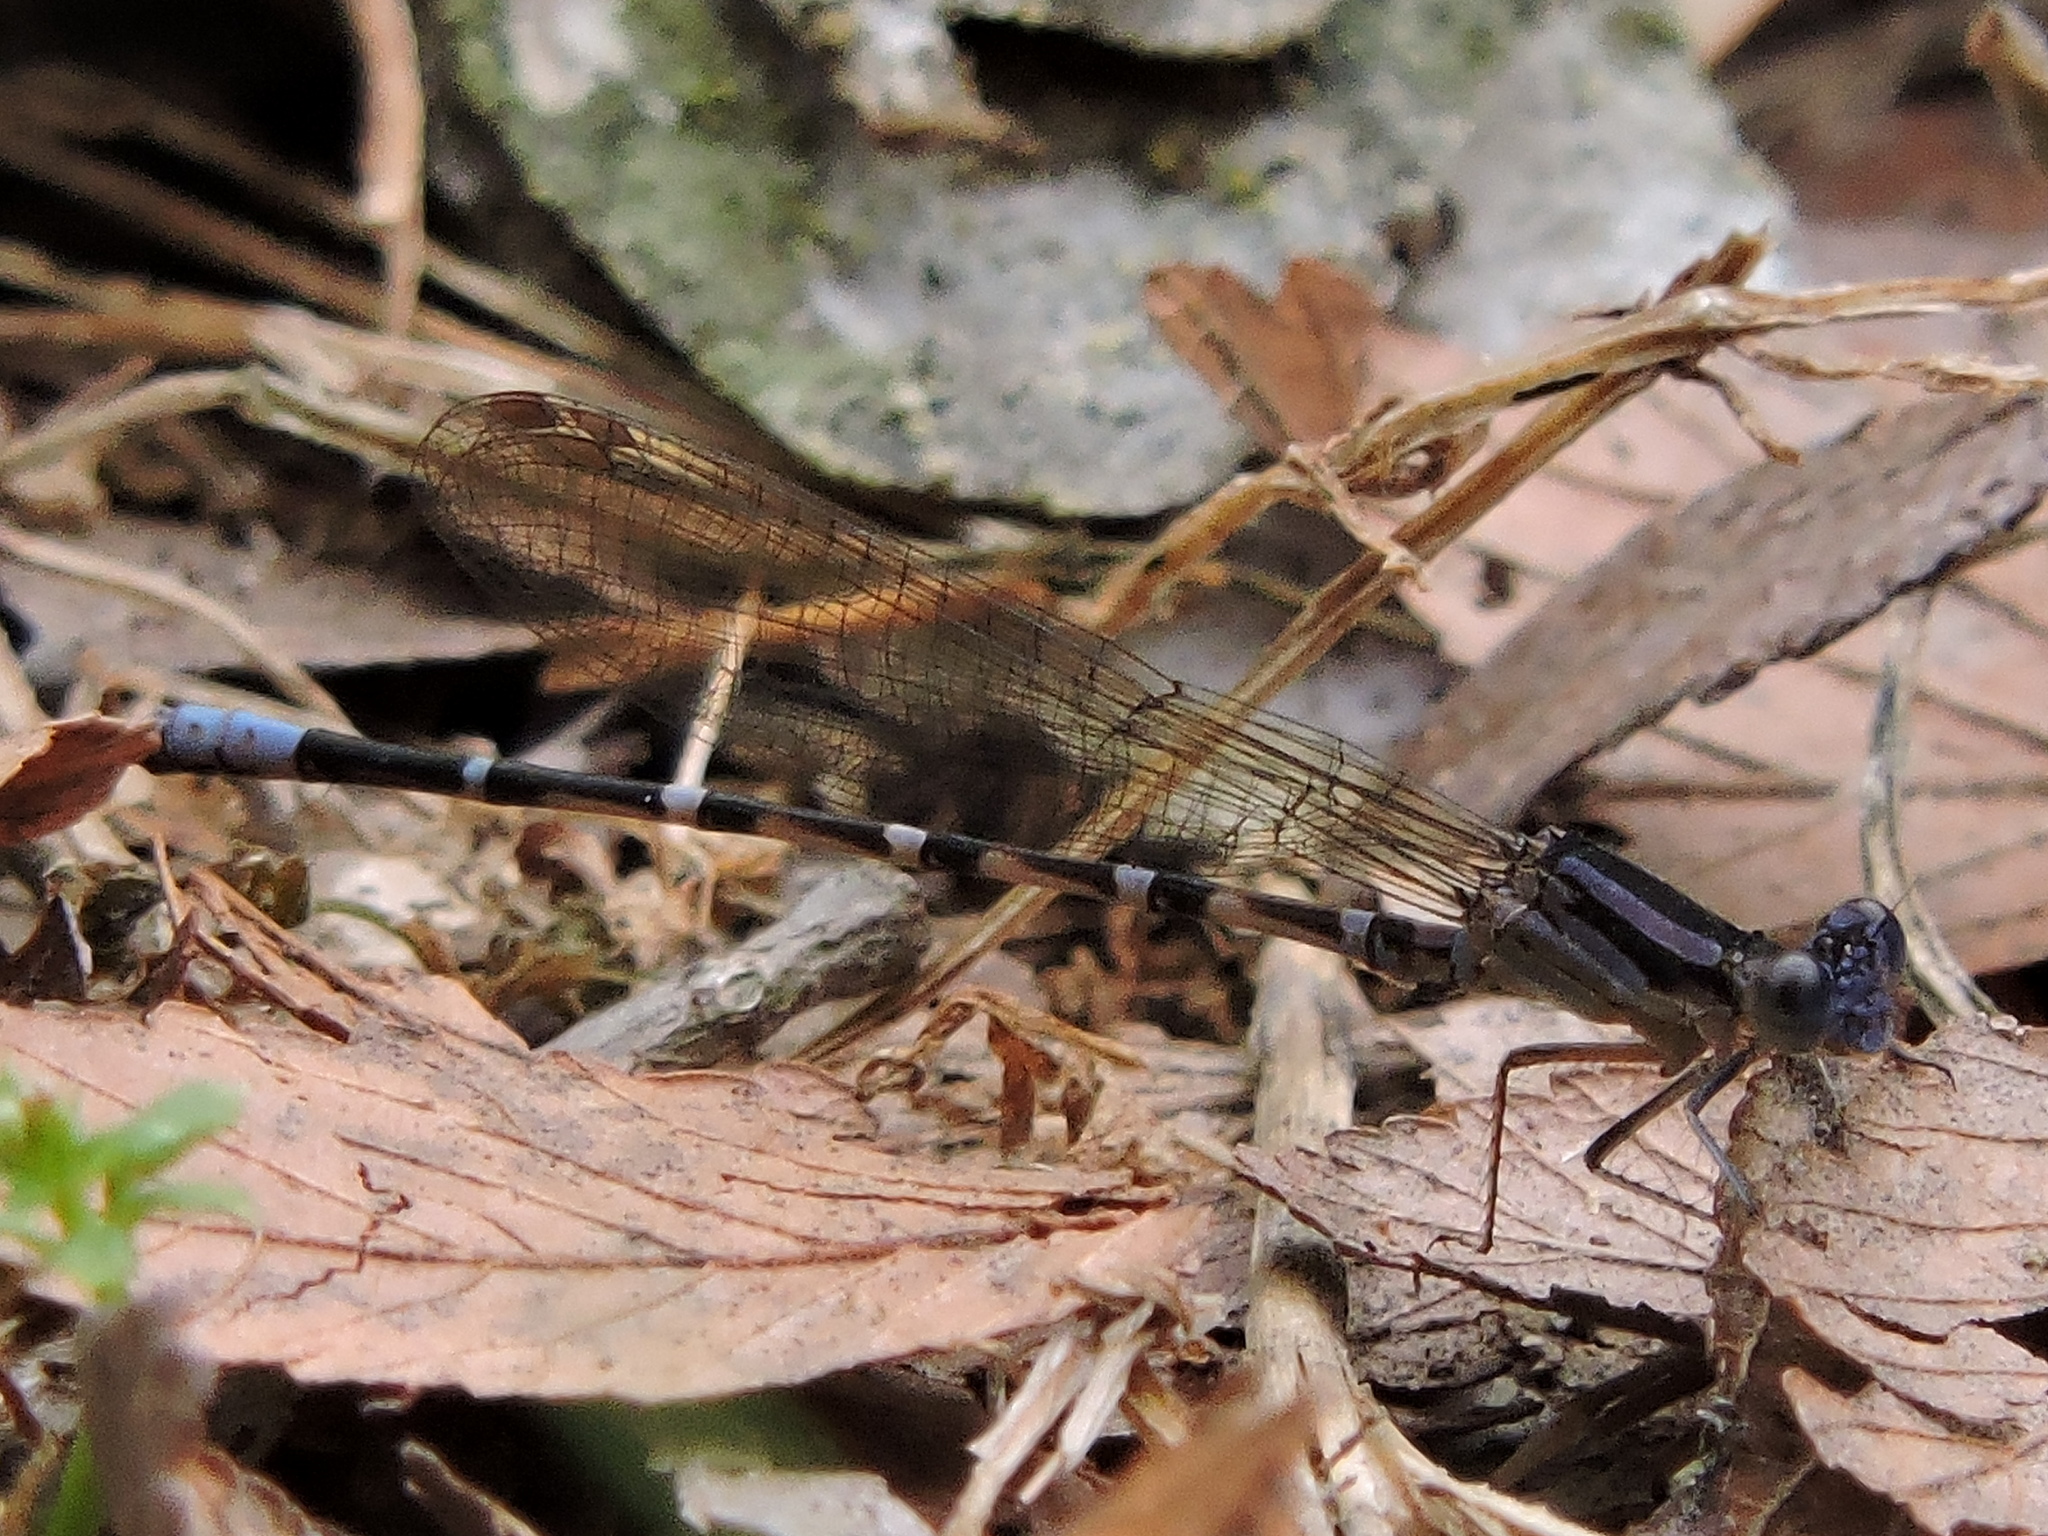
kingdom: Animalia
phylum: Arthropoda
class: Insecta
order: Odonata
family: Coenagrionidae
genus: Argia
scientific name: Argia sedula
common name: Blue-ringed dancer
